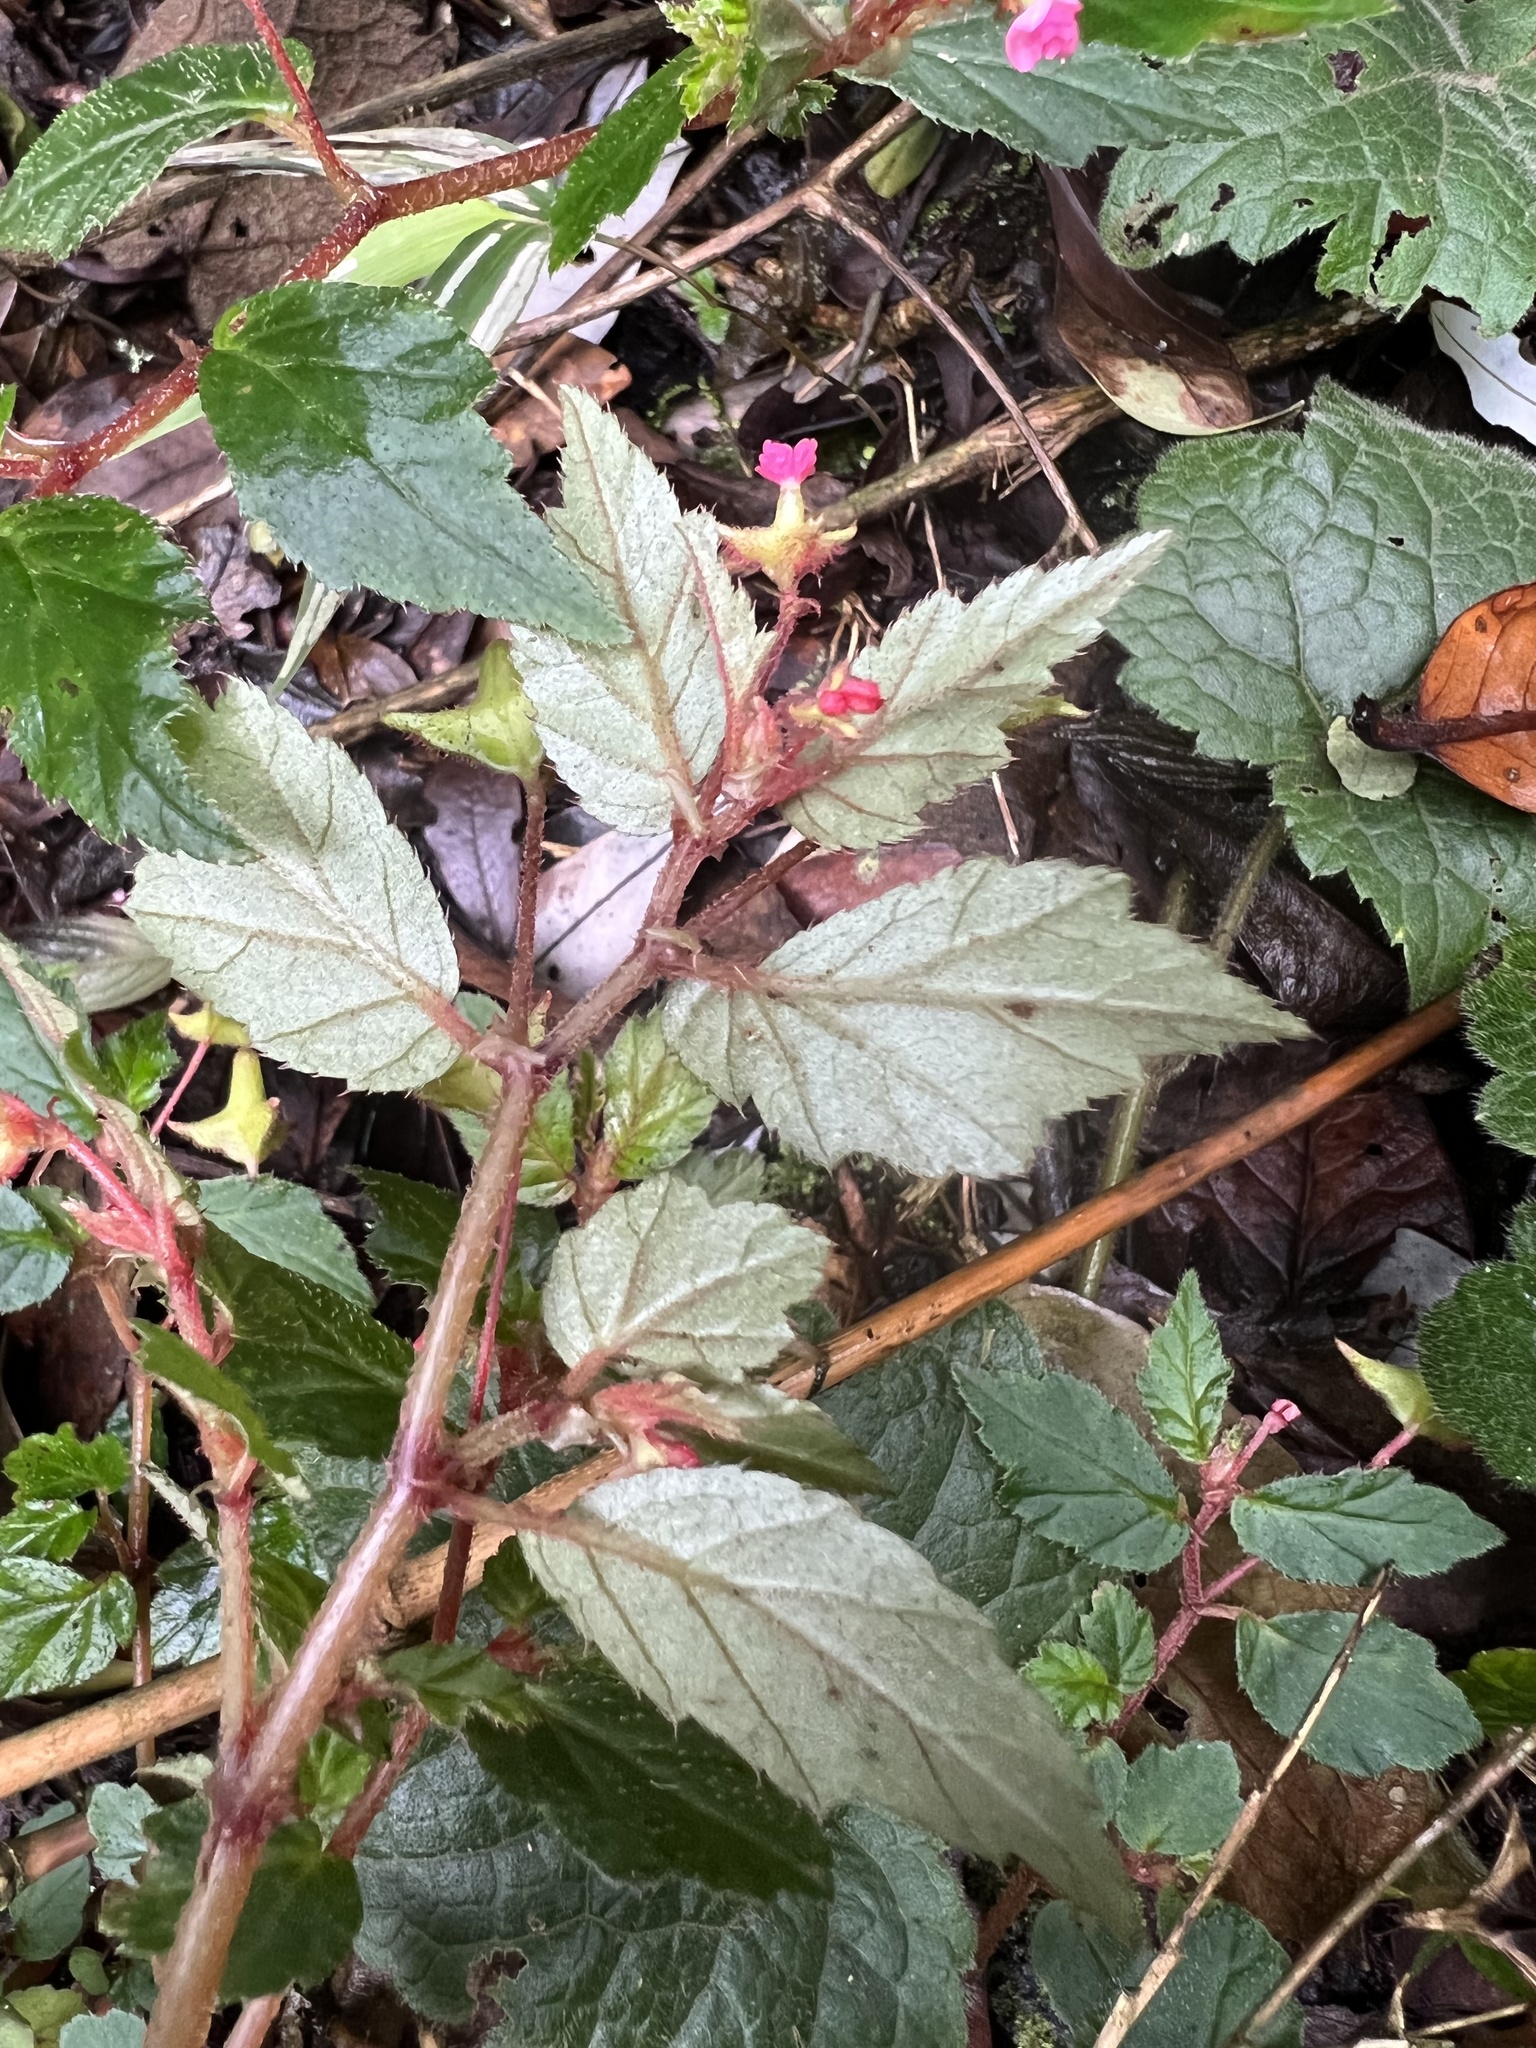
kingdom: Plantae
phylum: Tracheophyta
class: Magnoliopsida
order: Cucurbitales
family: Begoniaceae
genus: Begonia
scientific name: Begonia urticae
